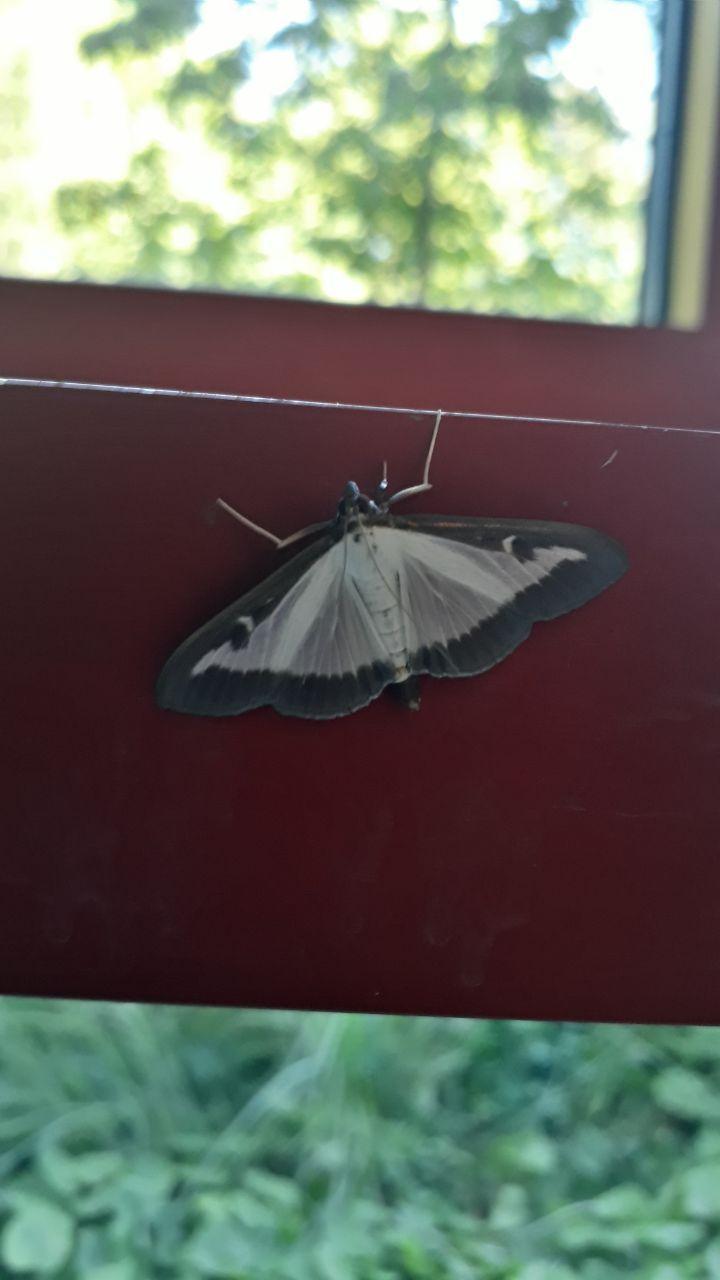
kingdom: Animalia
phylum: Arthropoda
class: Insecta
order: Lepidoptera
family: Crambidae
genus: Cydalima
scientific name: Cydalima perspectalis
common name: Box tree moth
